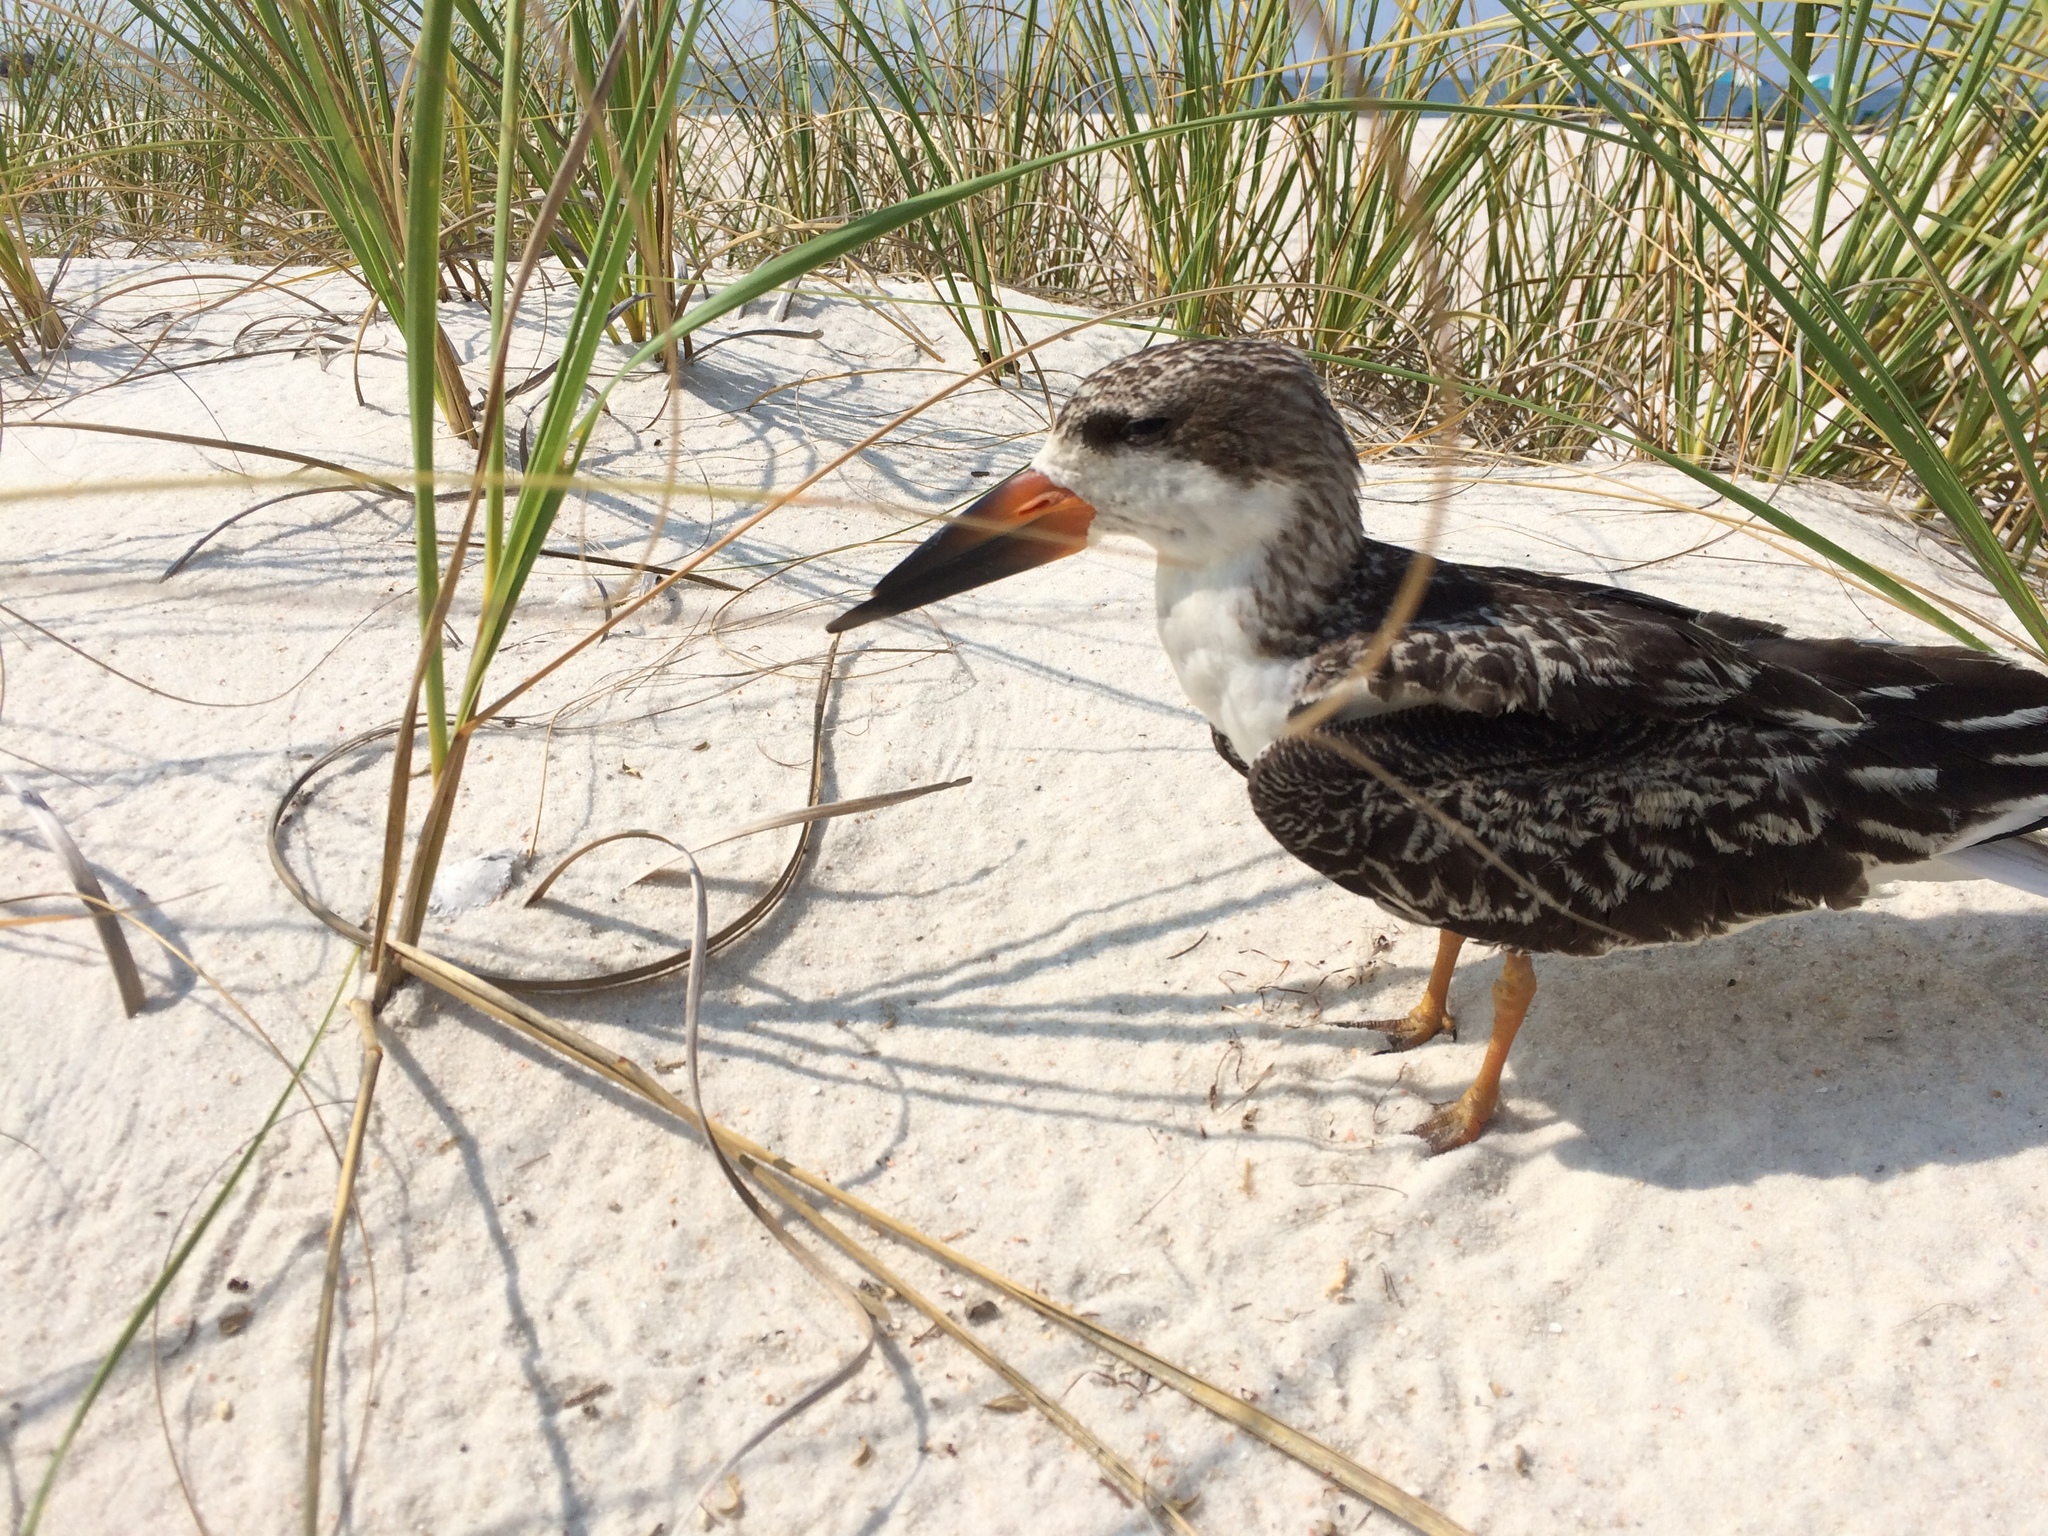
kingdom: Animalia
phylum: Chordata
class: Aves
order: Charadriiformes
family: Laridae
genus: Rynchops
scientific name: Rynchops niger
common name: Black skimmer
